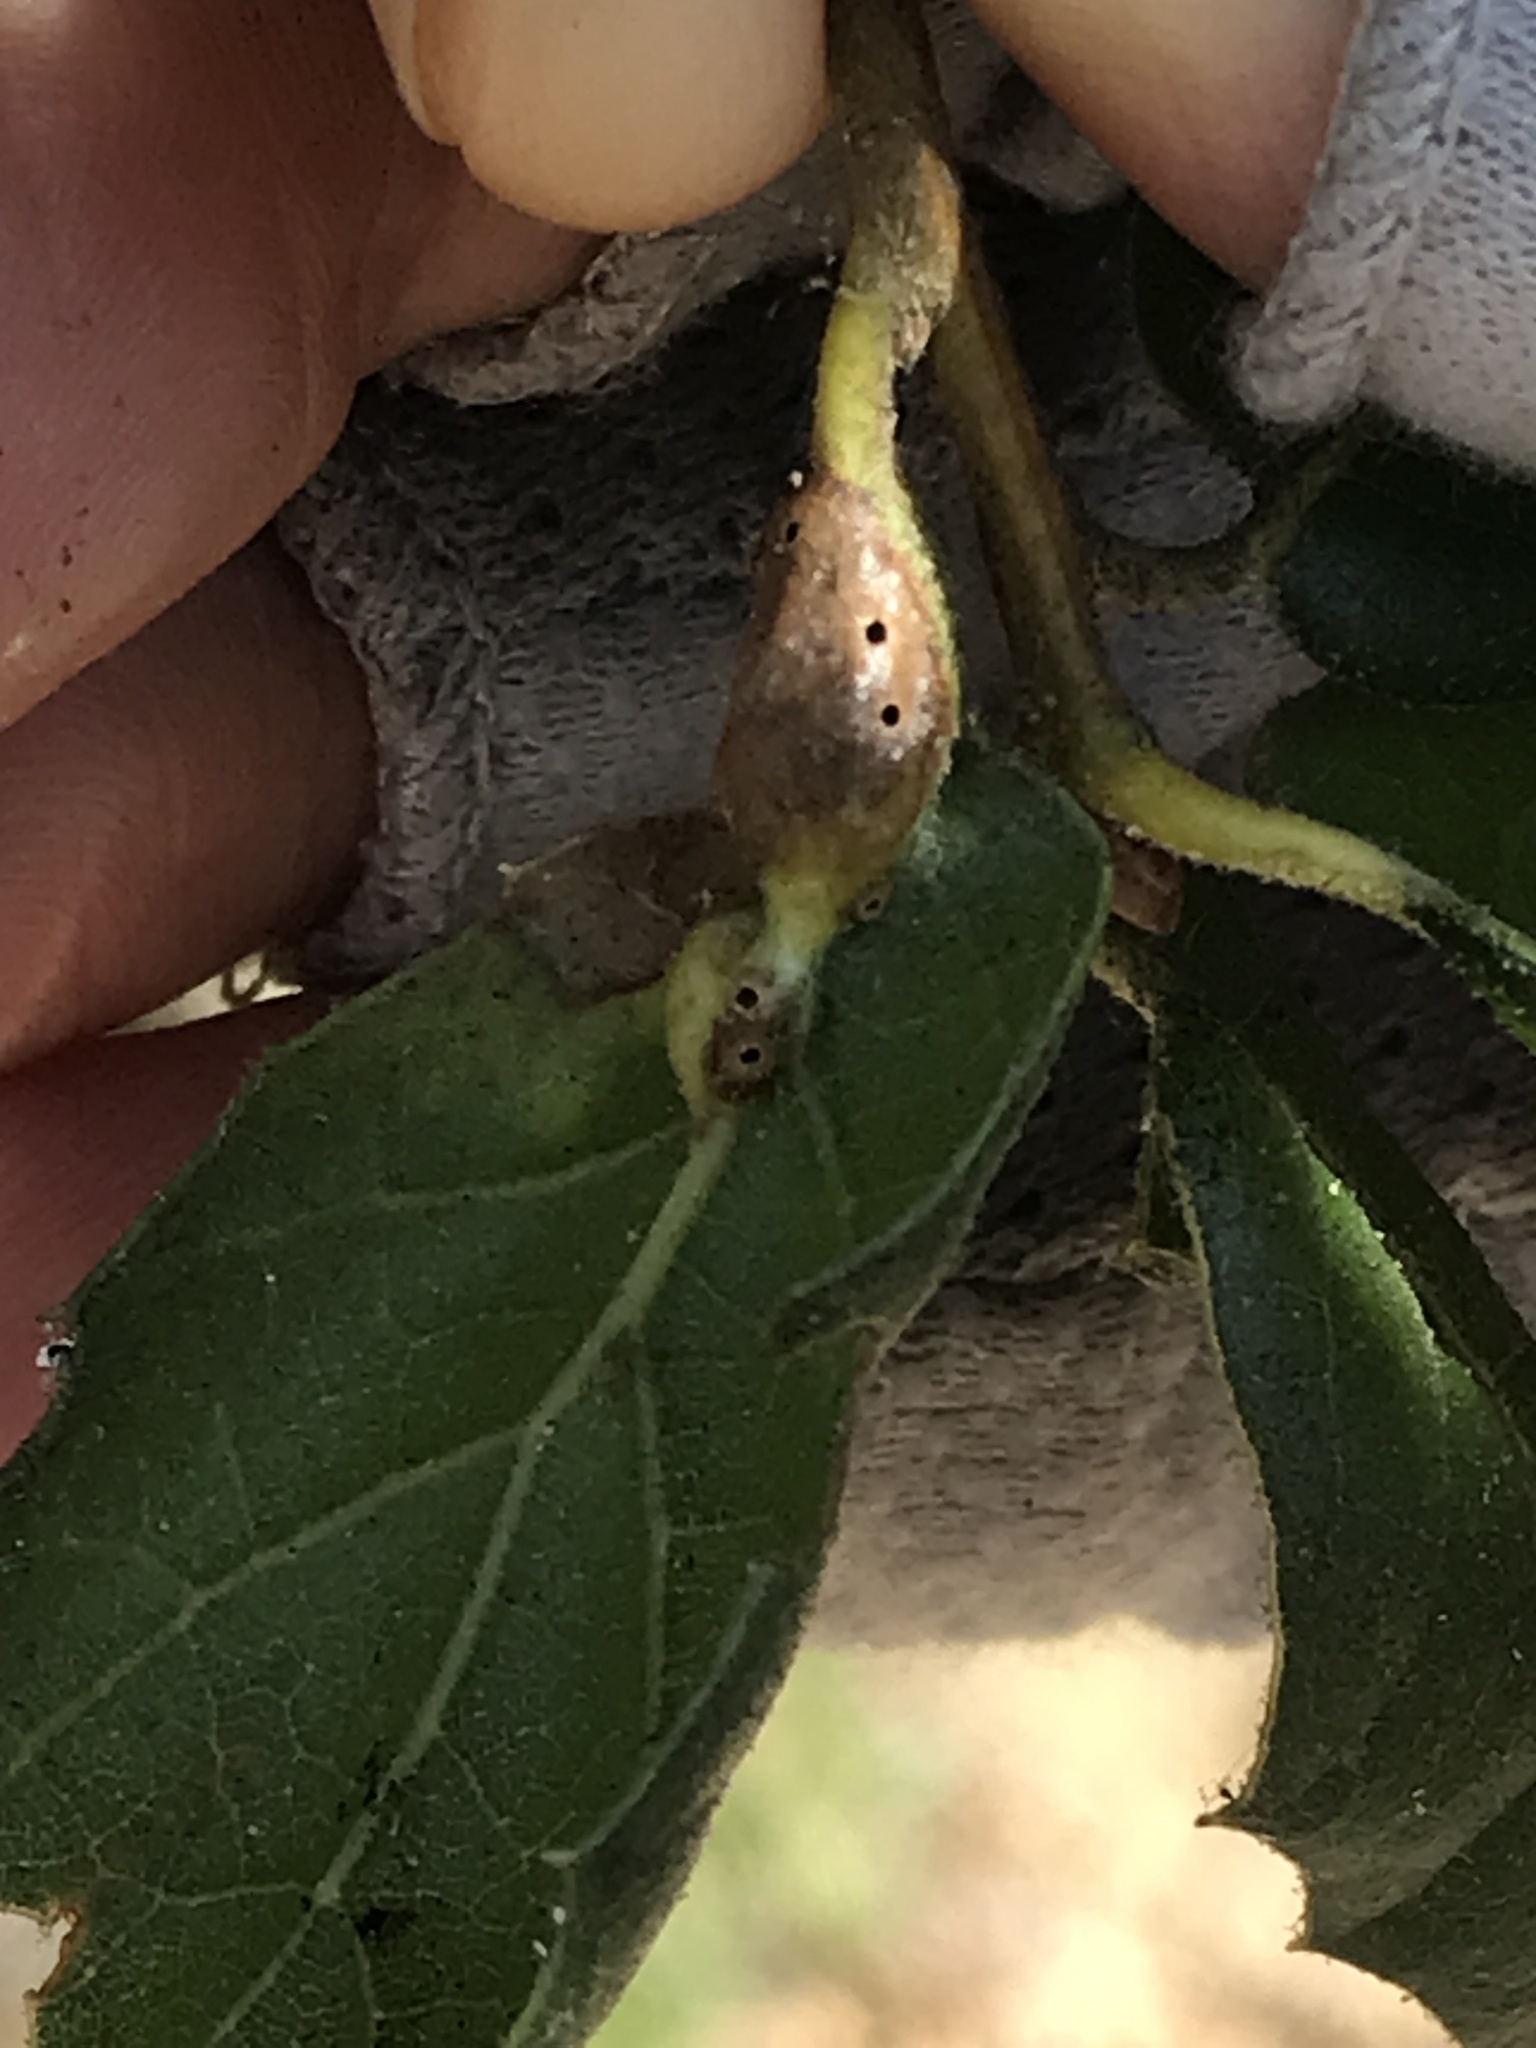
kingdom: Animalia
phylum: Arthropoda
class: Insecta
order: Hymenoptera
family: Cynipidae
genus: Melikaiella
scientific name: Melikaiella
